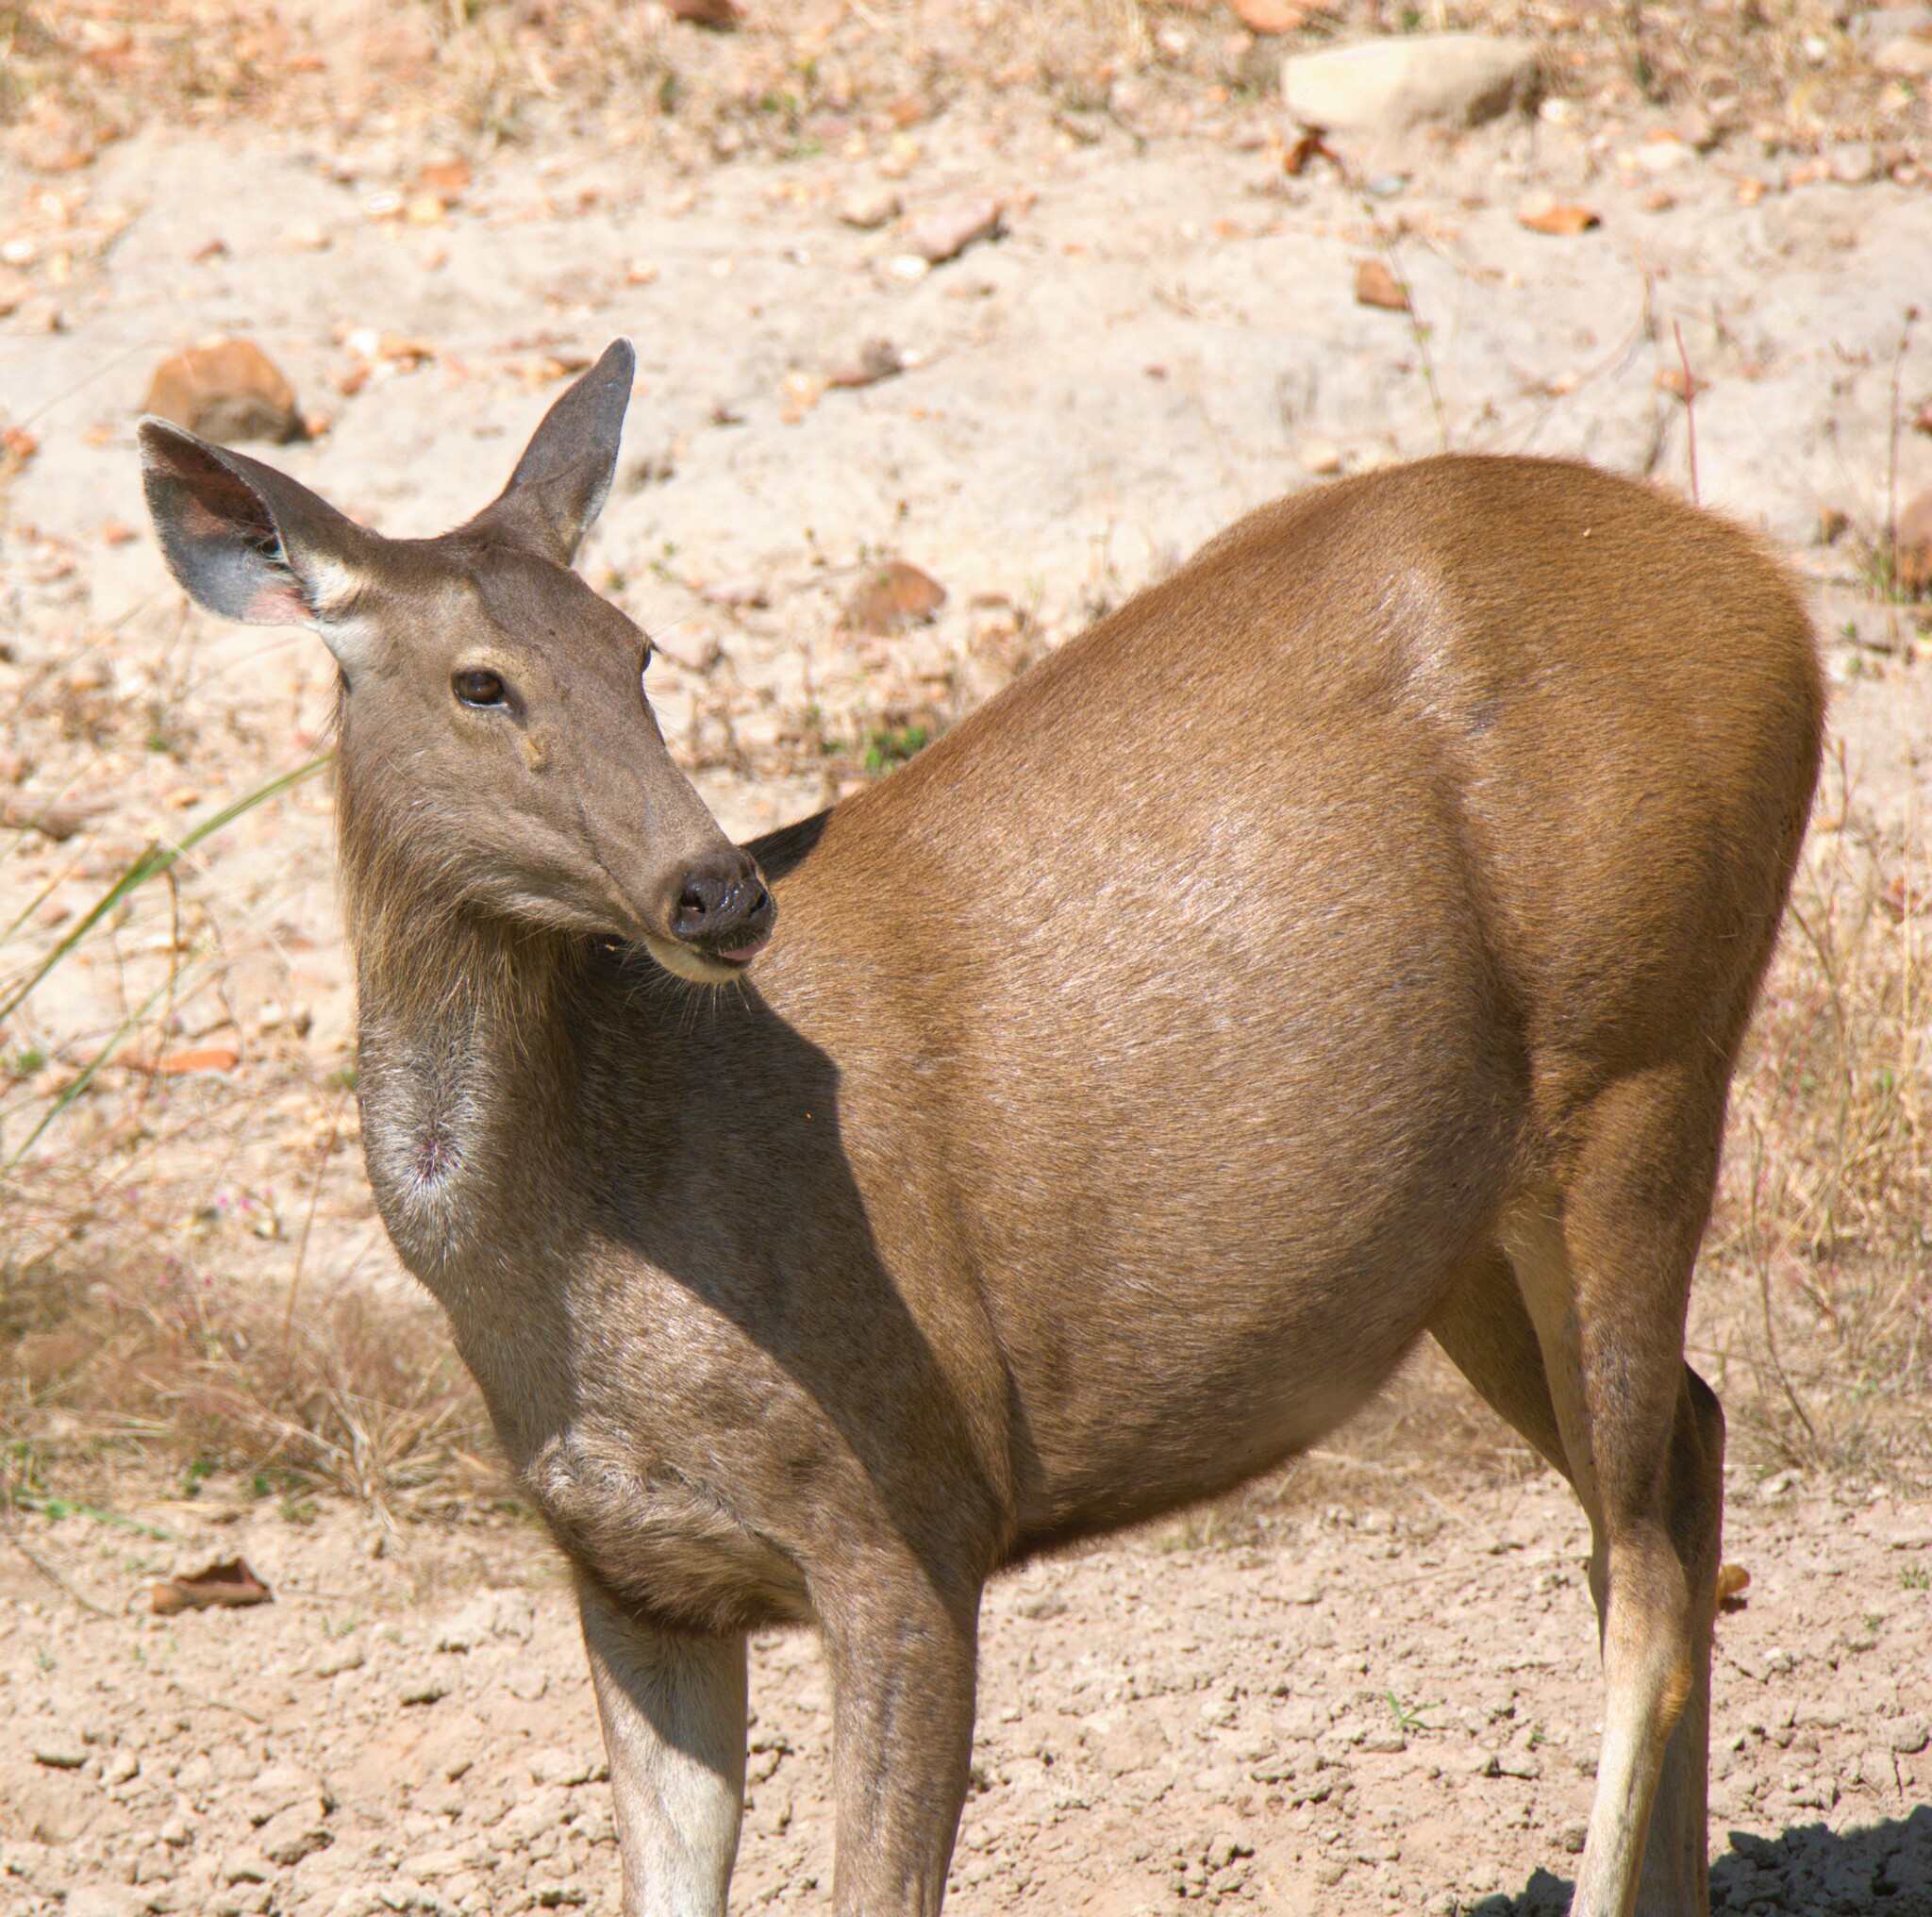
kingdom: Animalia
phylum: Chordata
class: Mammalia
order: Artiodactyla
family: Cervidae
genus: Rusa
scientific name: Rusa unicolor
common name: Sambar
